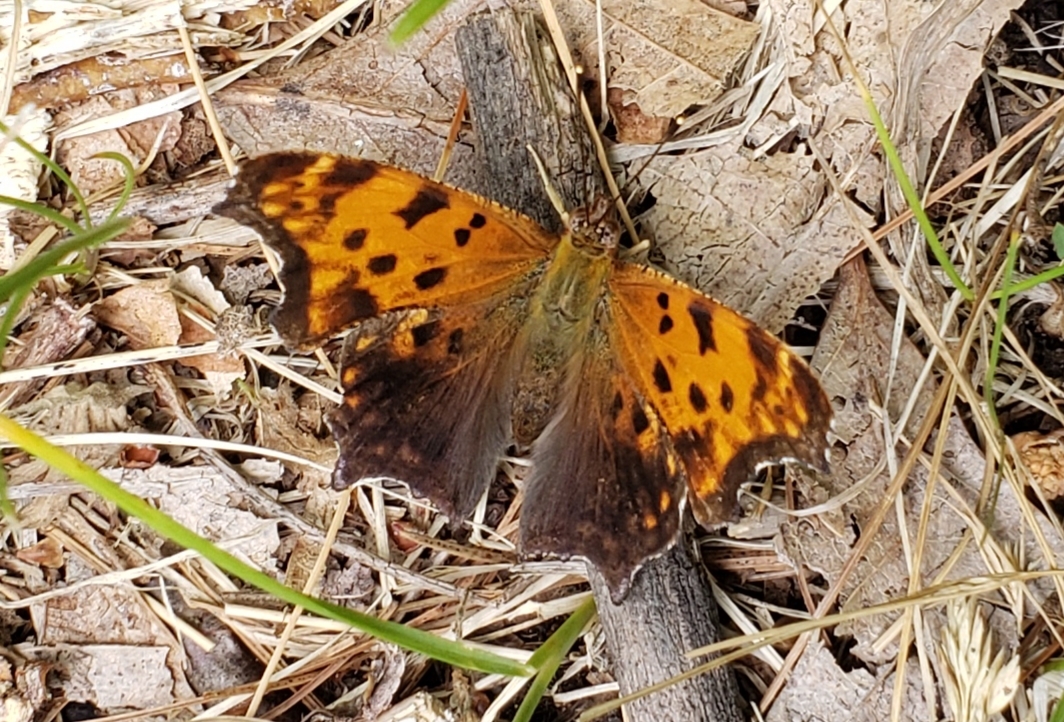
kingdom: Animalia
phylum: Arthropoda
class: Insecta
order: Lepidoptera
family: Nymphalidae
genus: Polygonia
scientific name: Polygonia comma
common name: Eastern comma
